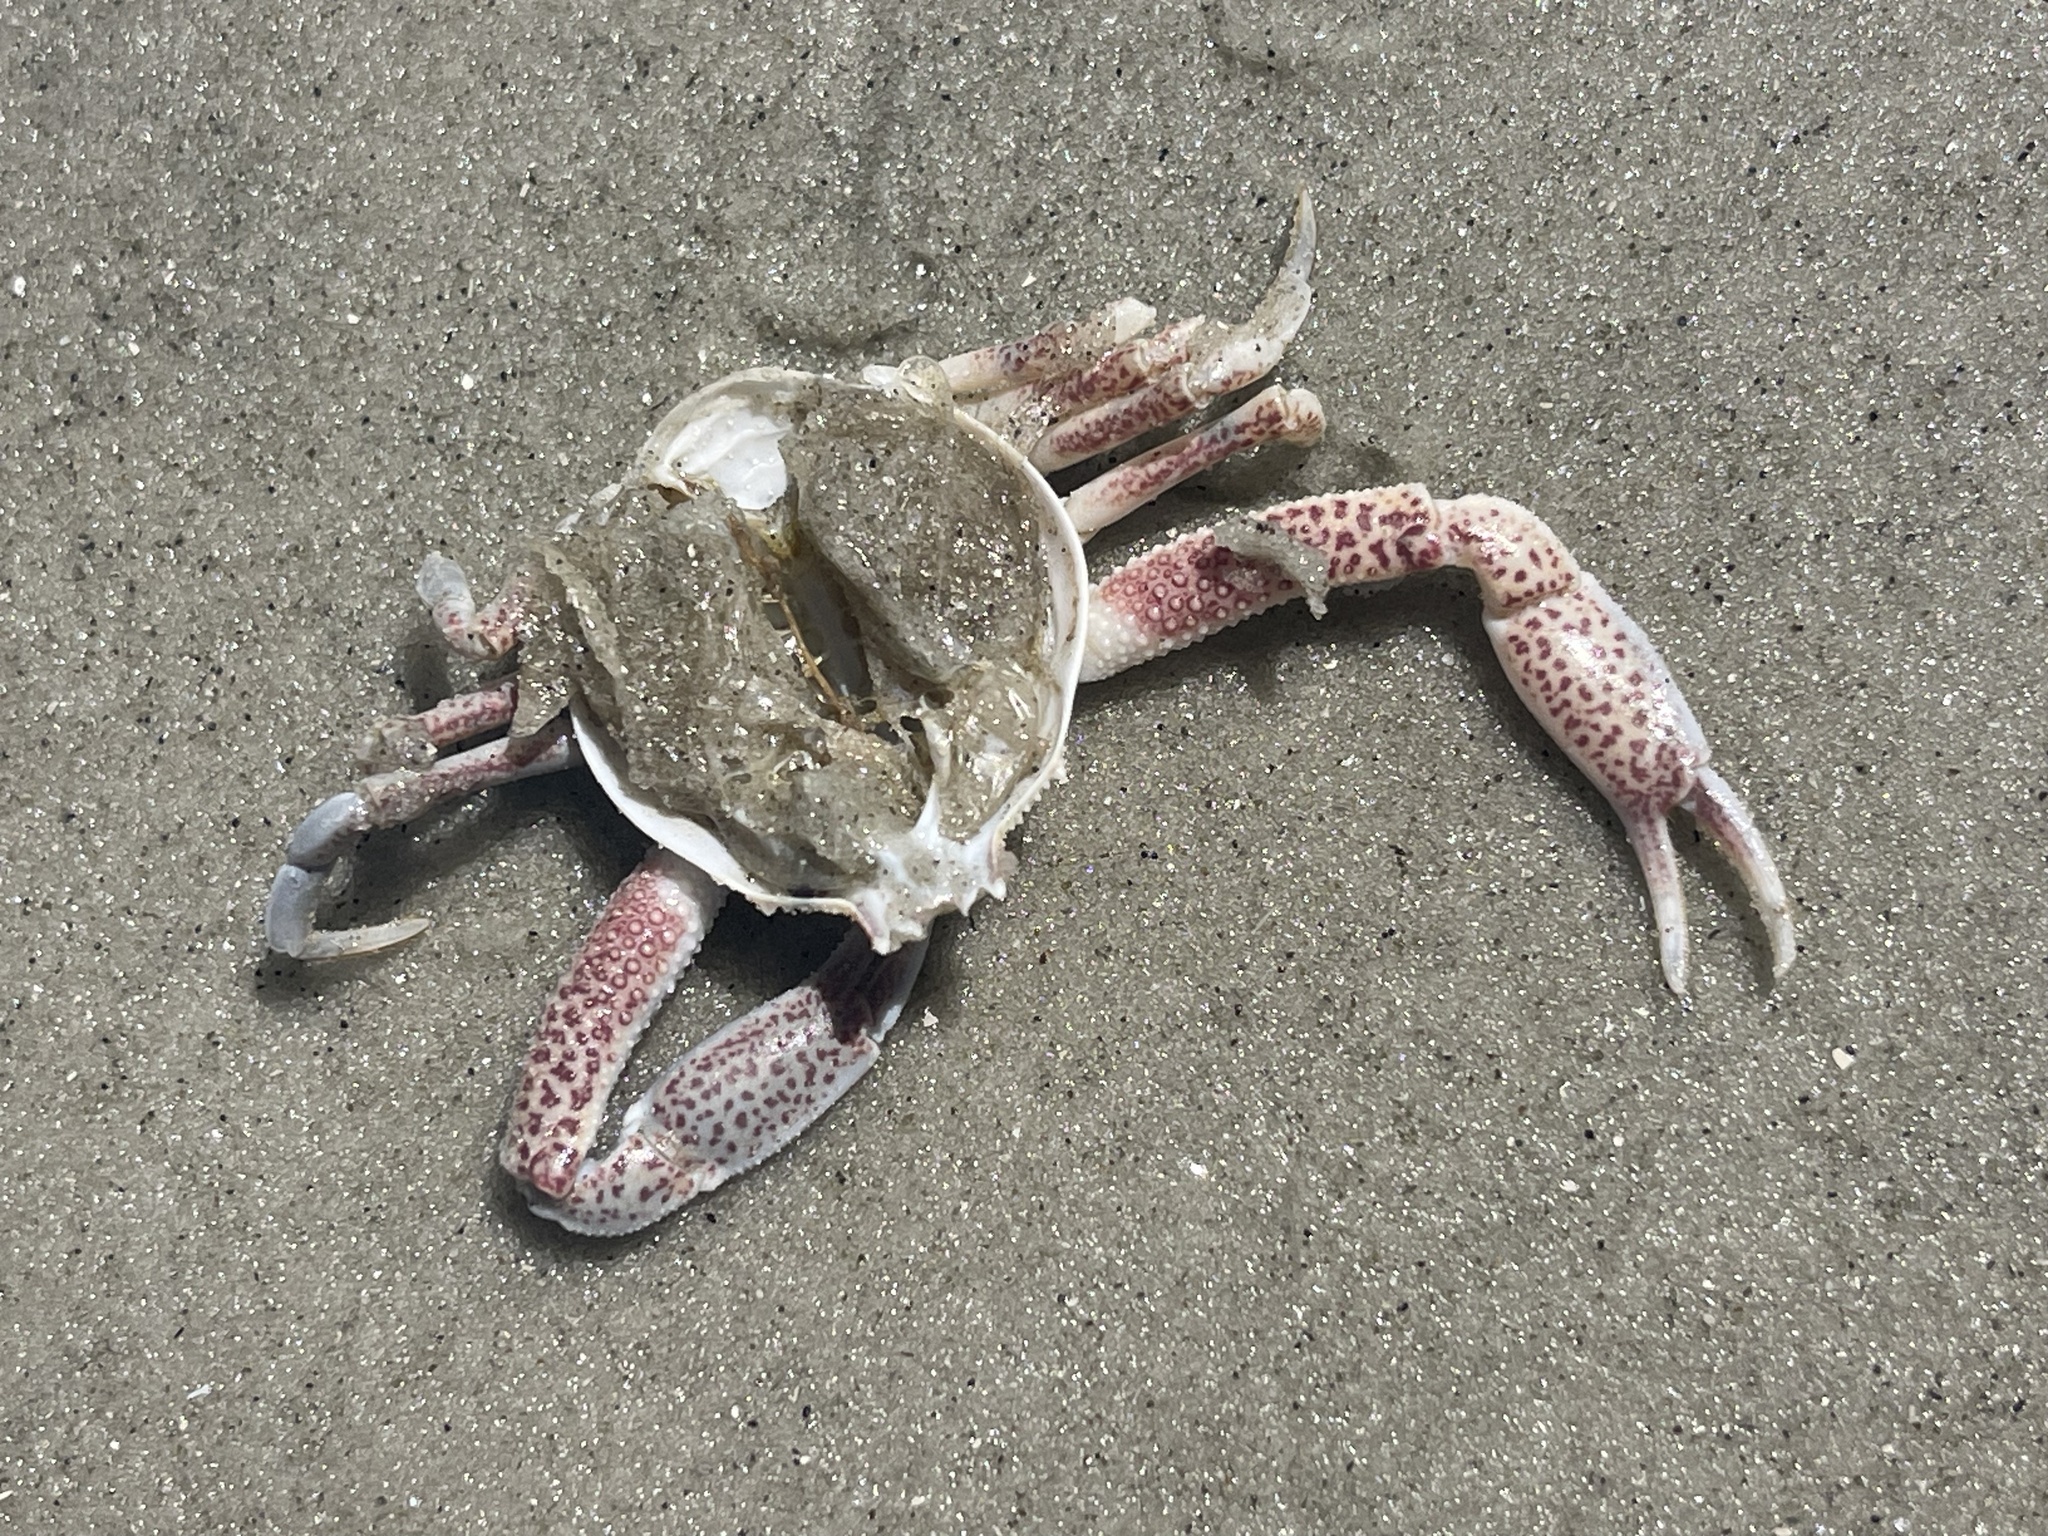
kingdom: Animalia
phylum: Arthropoda
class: Malacostraca
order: Decapoda
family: Leucosiidae
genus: Persephona
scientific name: Persephona aquilonaris
